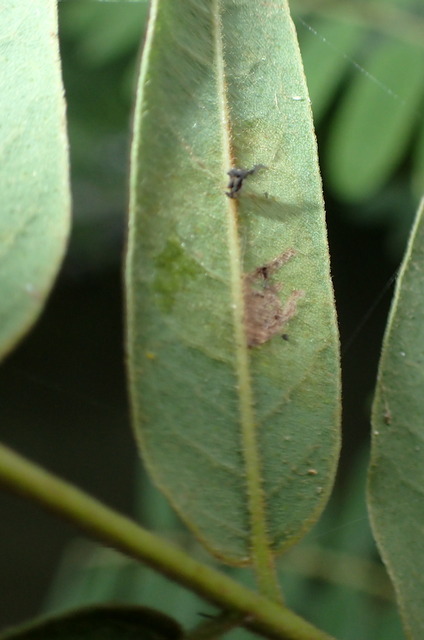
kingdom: Animalia
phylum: Arthropoda
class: Insecta
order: Lepidoptera
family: Gracillariidae
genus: Parectopa
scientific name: Parectopa robiniella
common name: Locust digitate leafminer
